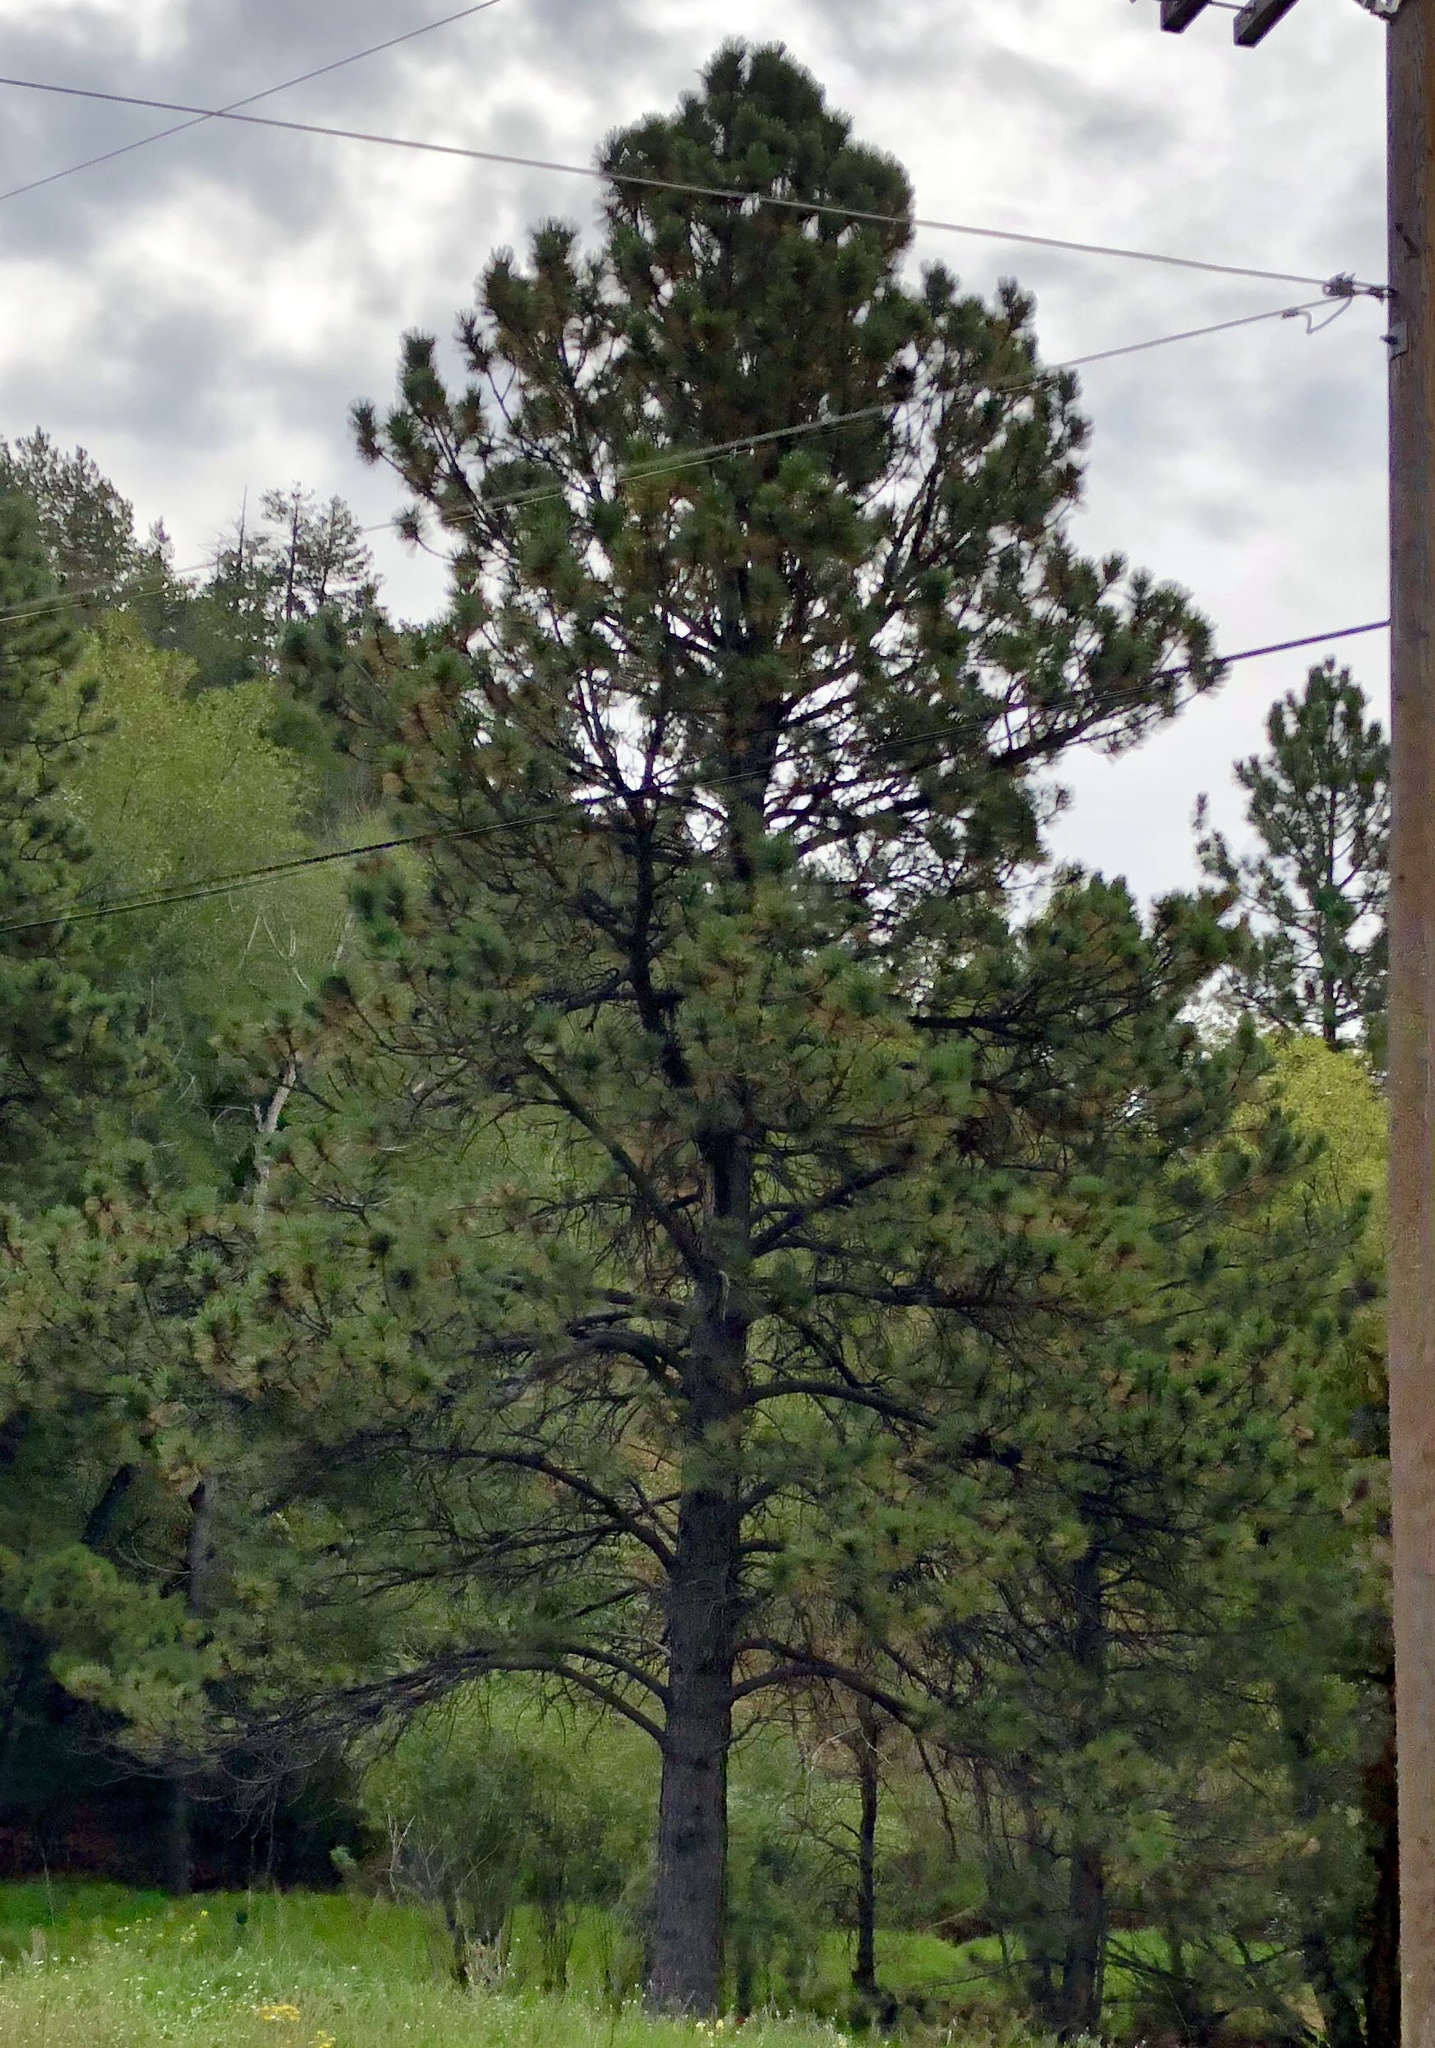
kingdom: Plantae
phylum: Tracheophyta
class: Pinopsida
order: Pinales
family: Pinaceae
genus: Pinus
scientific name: Pinus ponderosa
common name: Western yellow-pine
